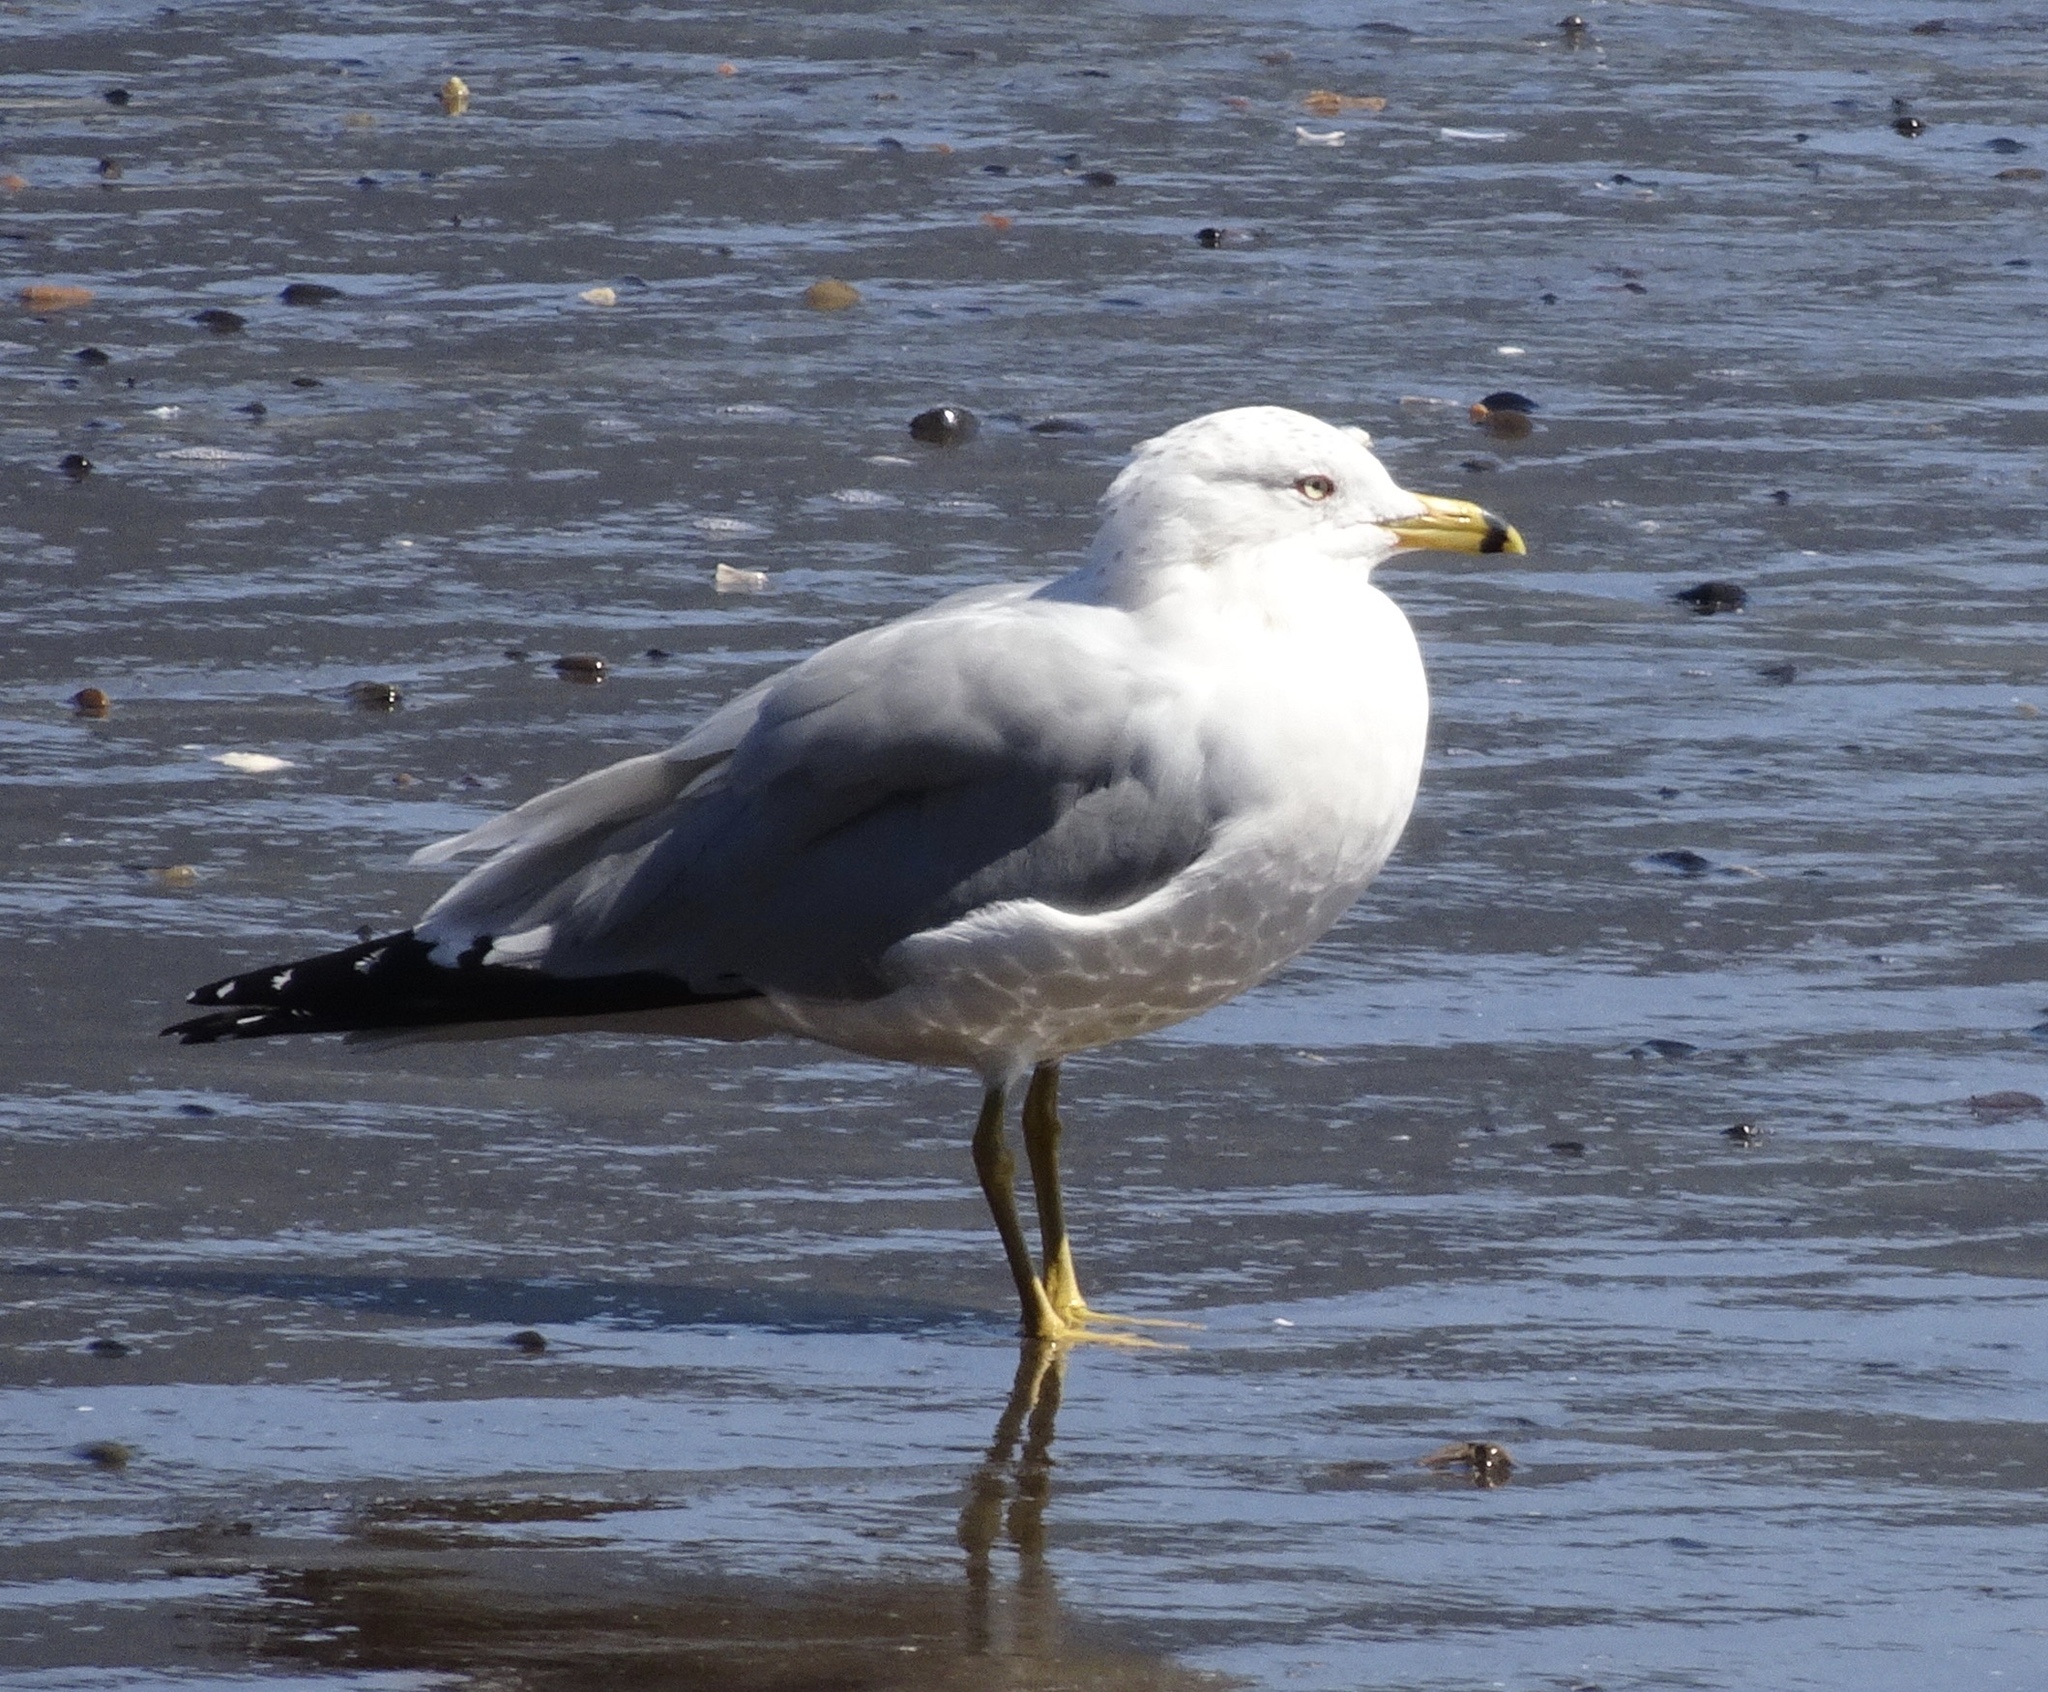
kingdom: Animalia
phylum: Chordata
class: Aves
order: Charadriiformes
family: Laridae
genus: Larus
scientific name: Larus delawarensis
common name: Ring-billed gull
